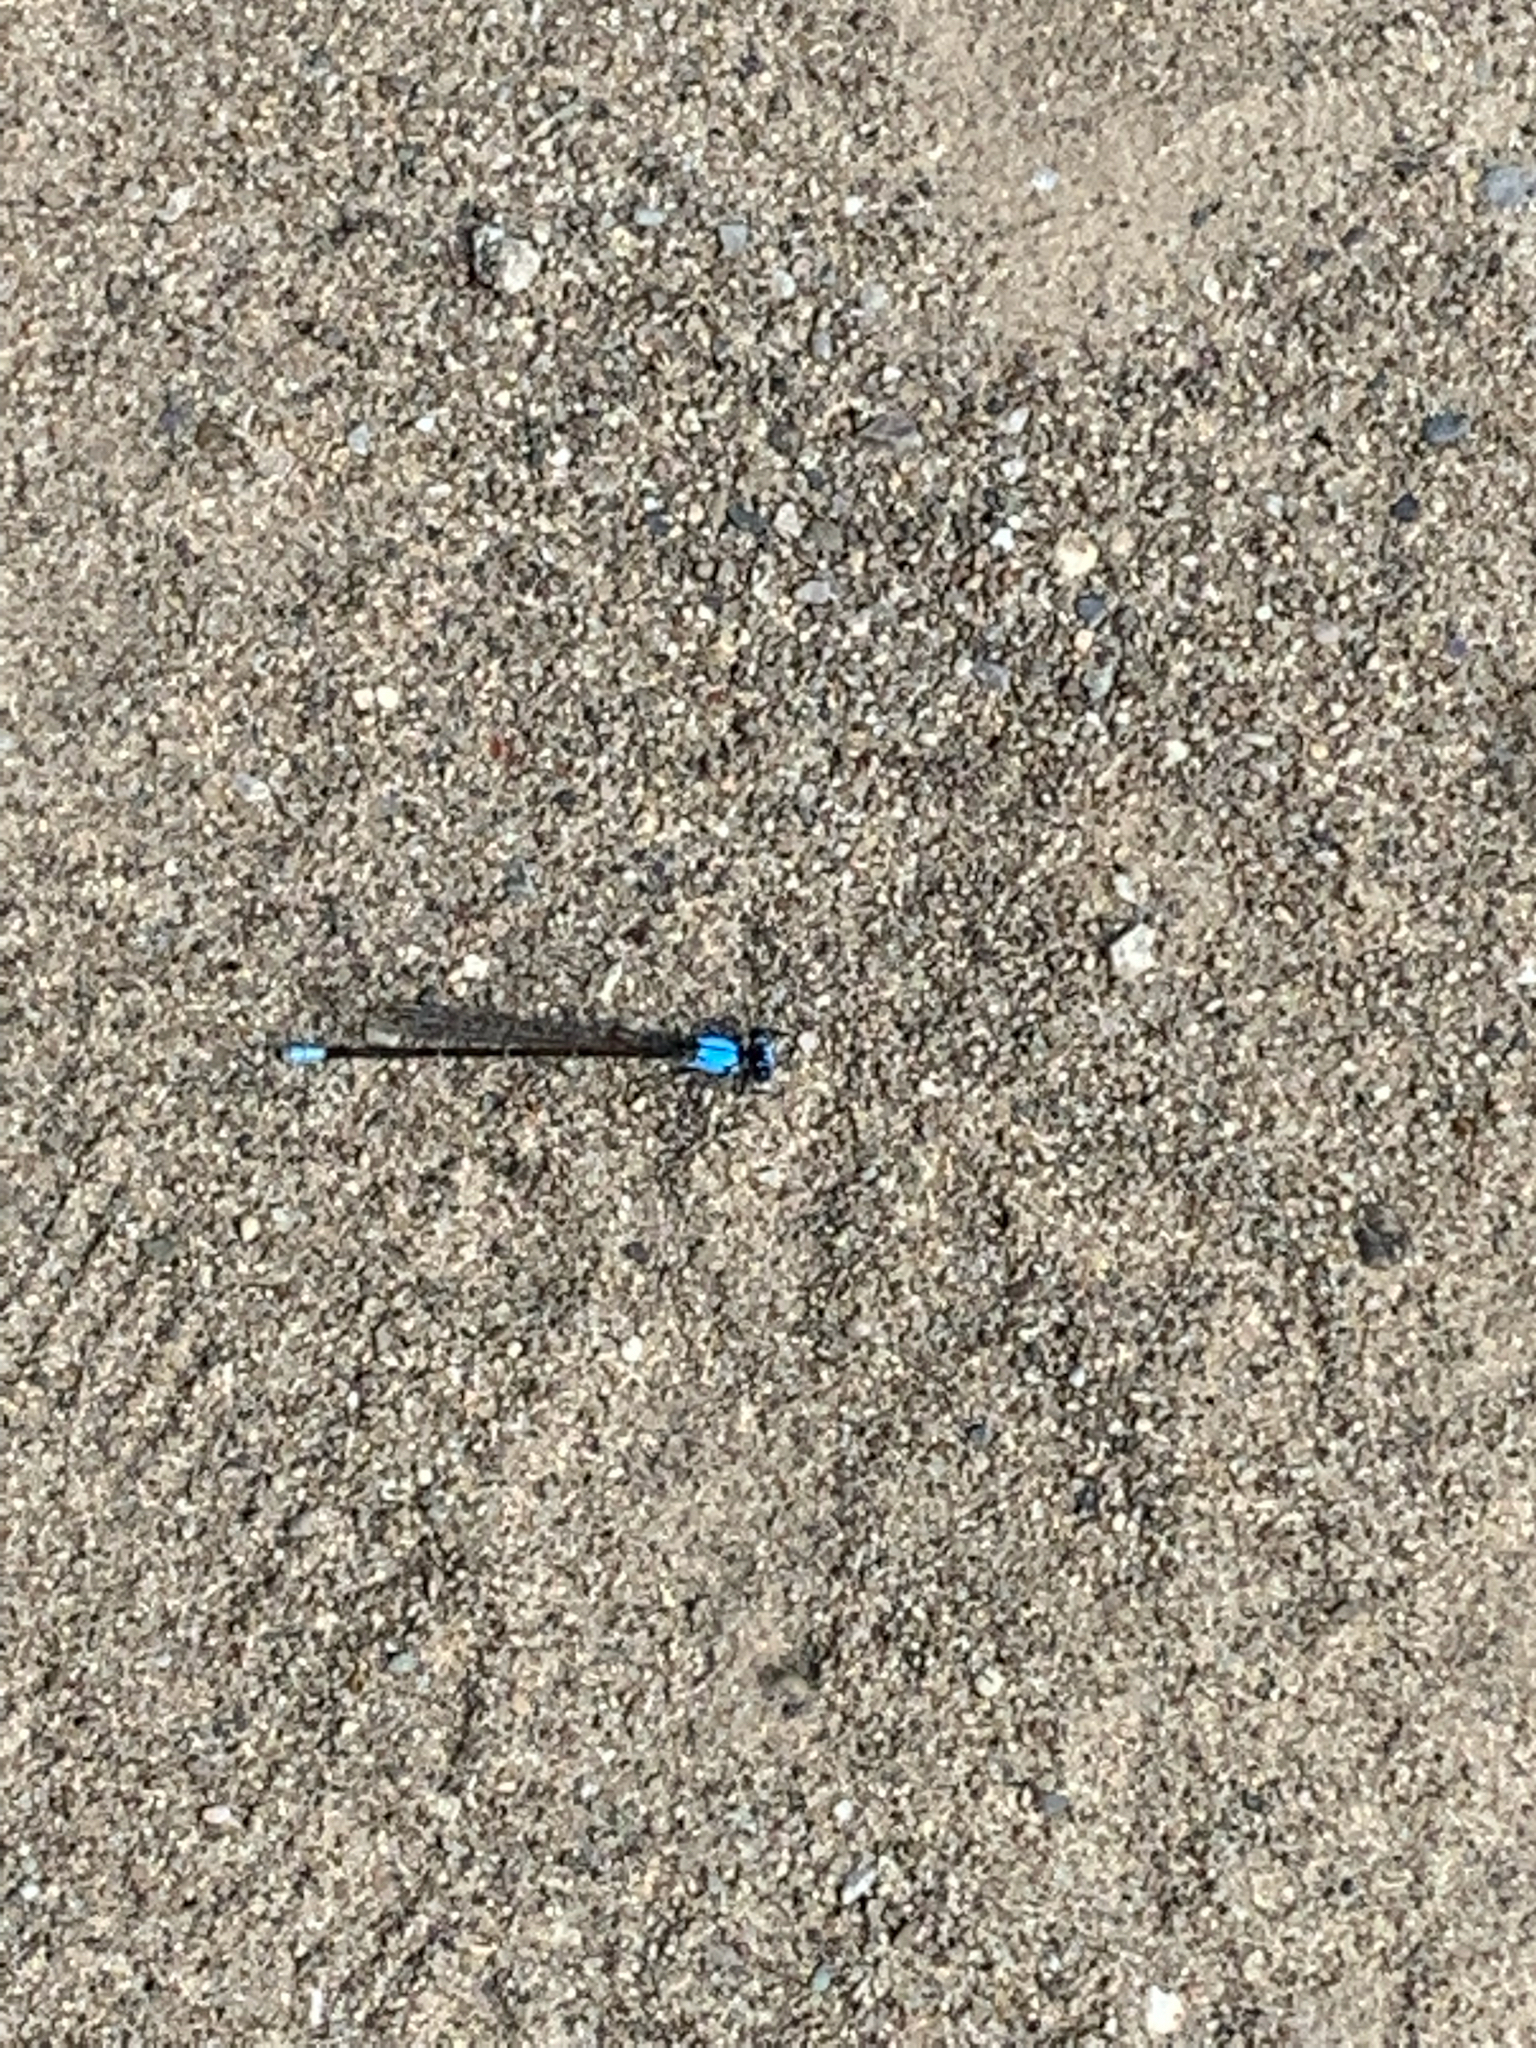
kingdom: Animalia
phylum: Arthropoda
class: Insecta
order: Odonata
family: Coenagrionidae
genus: Argia
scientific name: Argia apicalis
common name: Blue-fronted dancer
